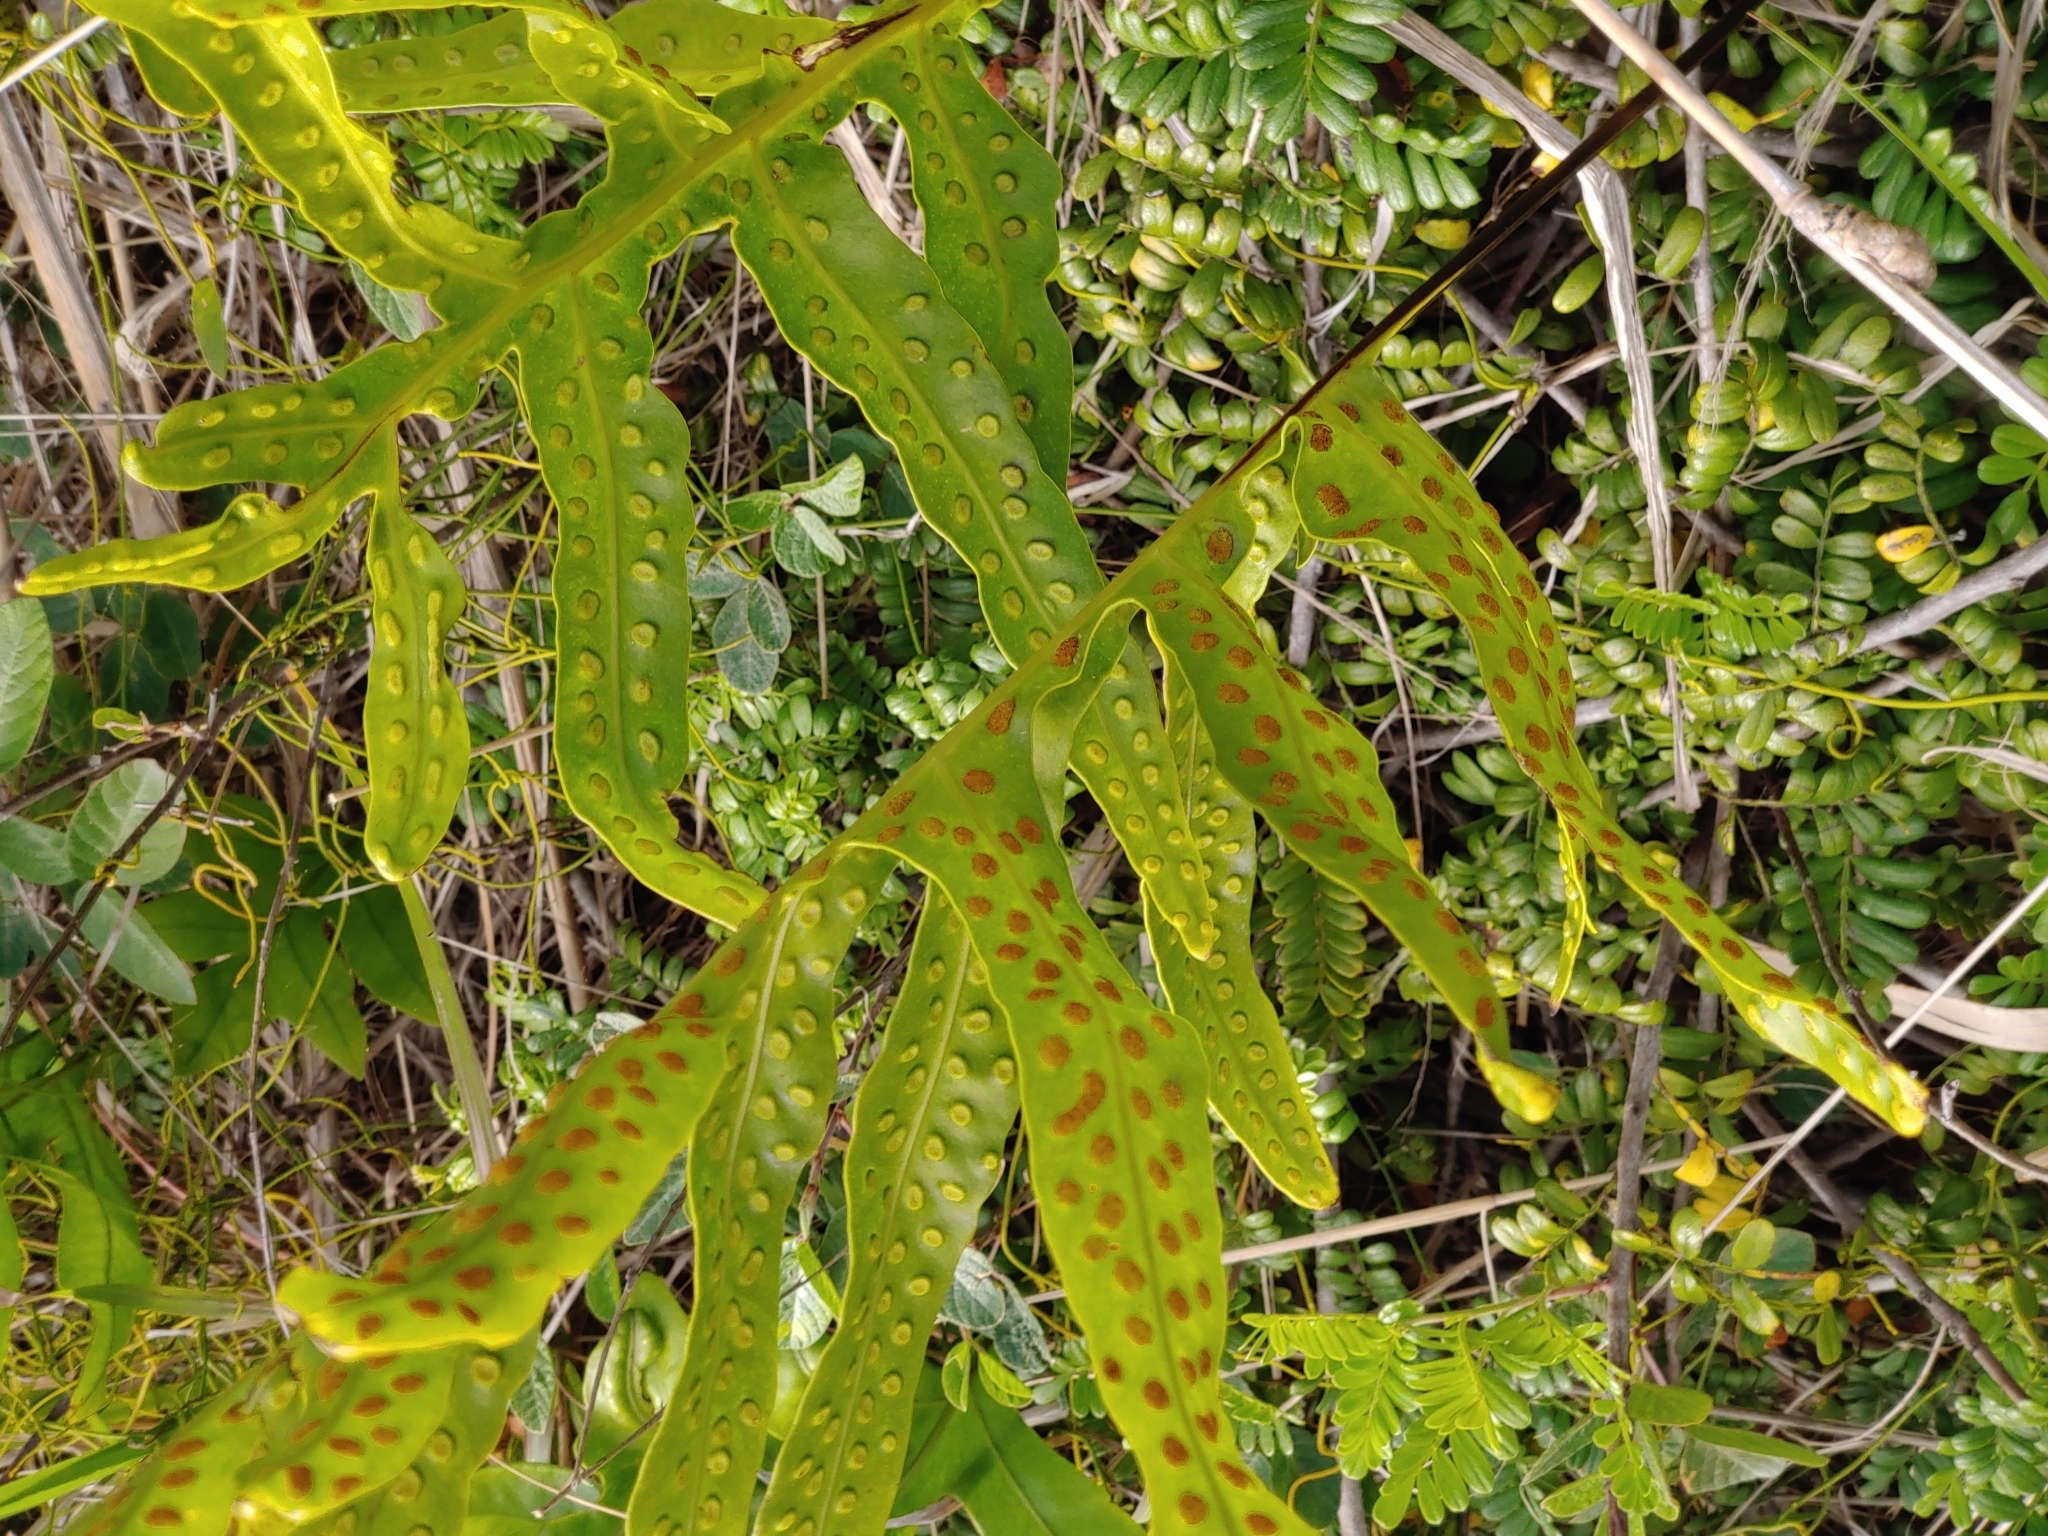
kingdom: Plantae
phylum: Tracheophyta
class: Polypodiopsida
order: Polypodiales
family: Polypodiaceae
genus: Microsorum
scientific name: Microsorum grossum
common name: Musk fern
